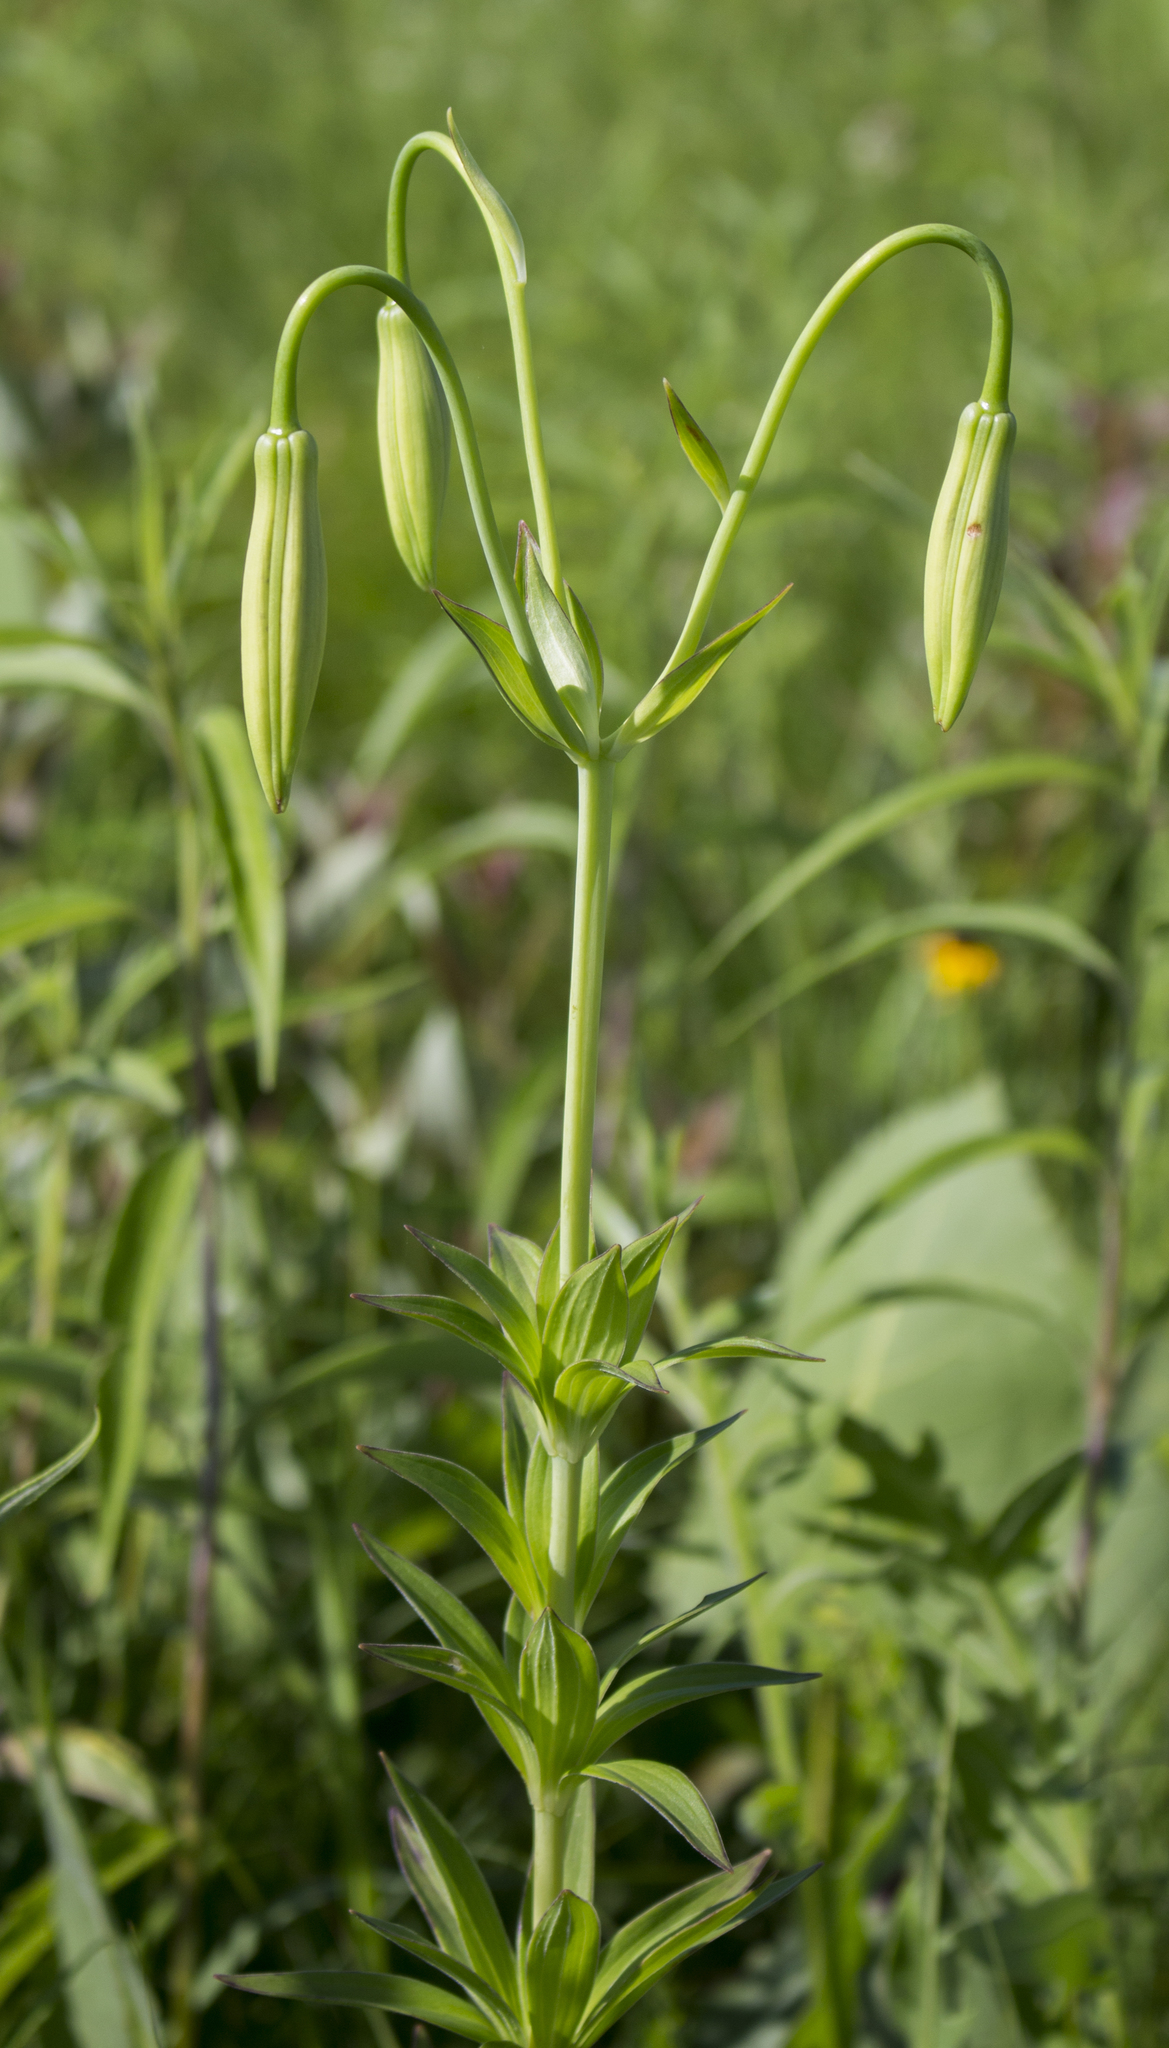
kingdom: Plantae
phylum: Tracheophyta
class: Liliopsida
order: Liliales
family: Liliaceae
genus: Lilium
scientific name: Lilium michiganense
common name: Michigan lily
